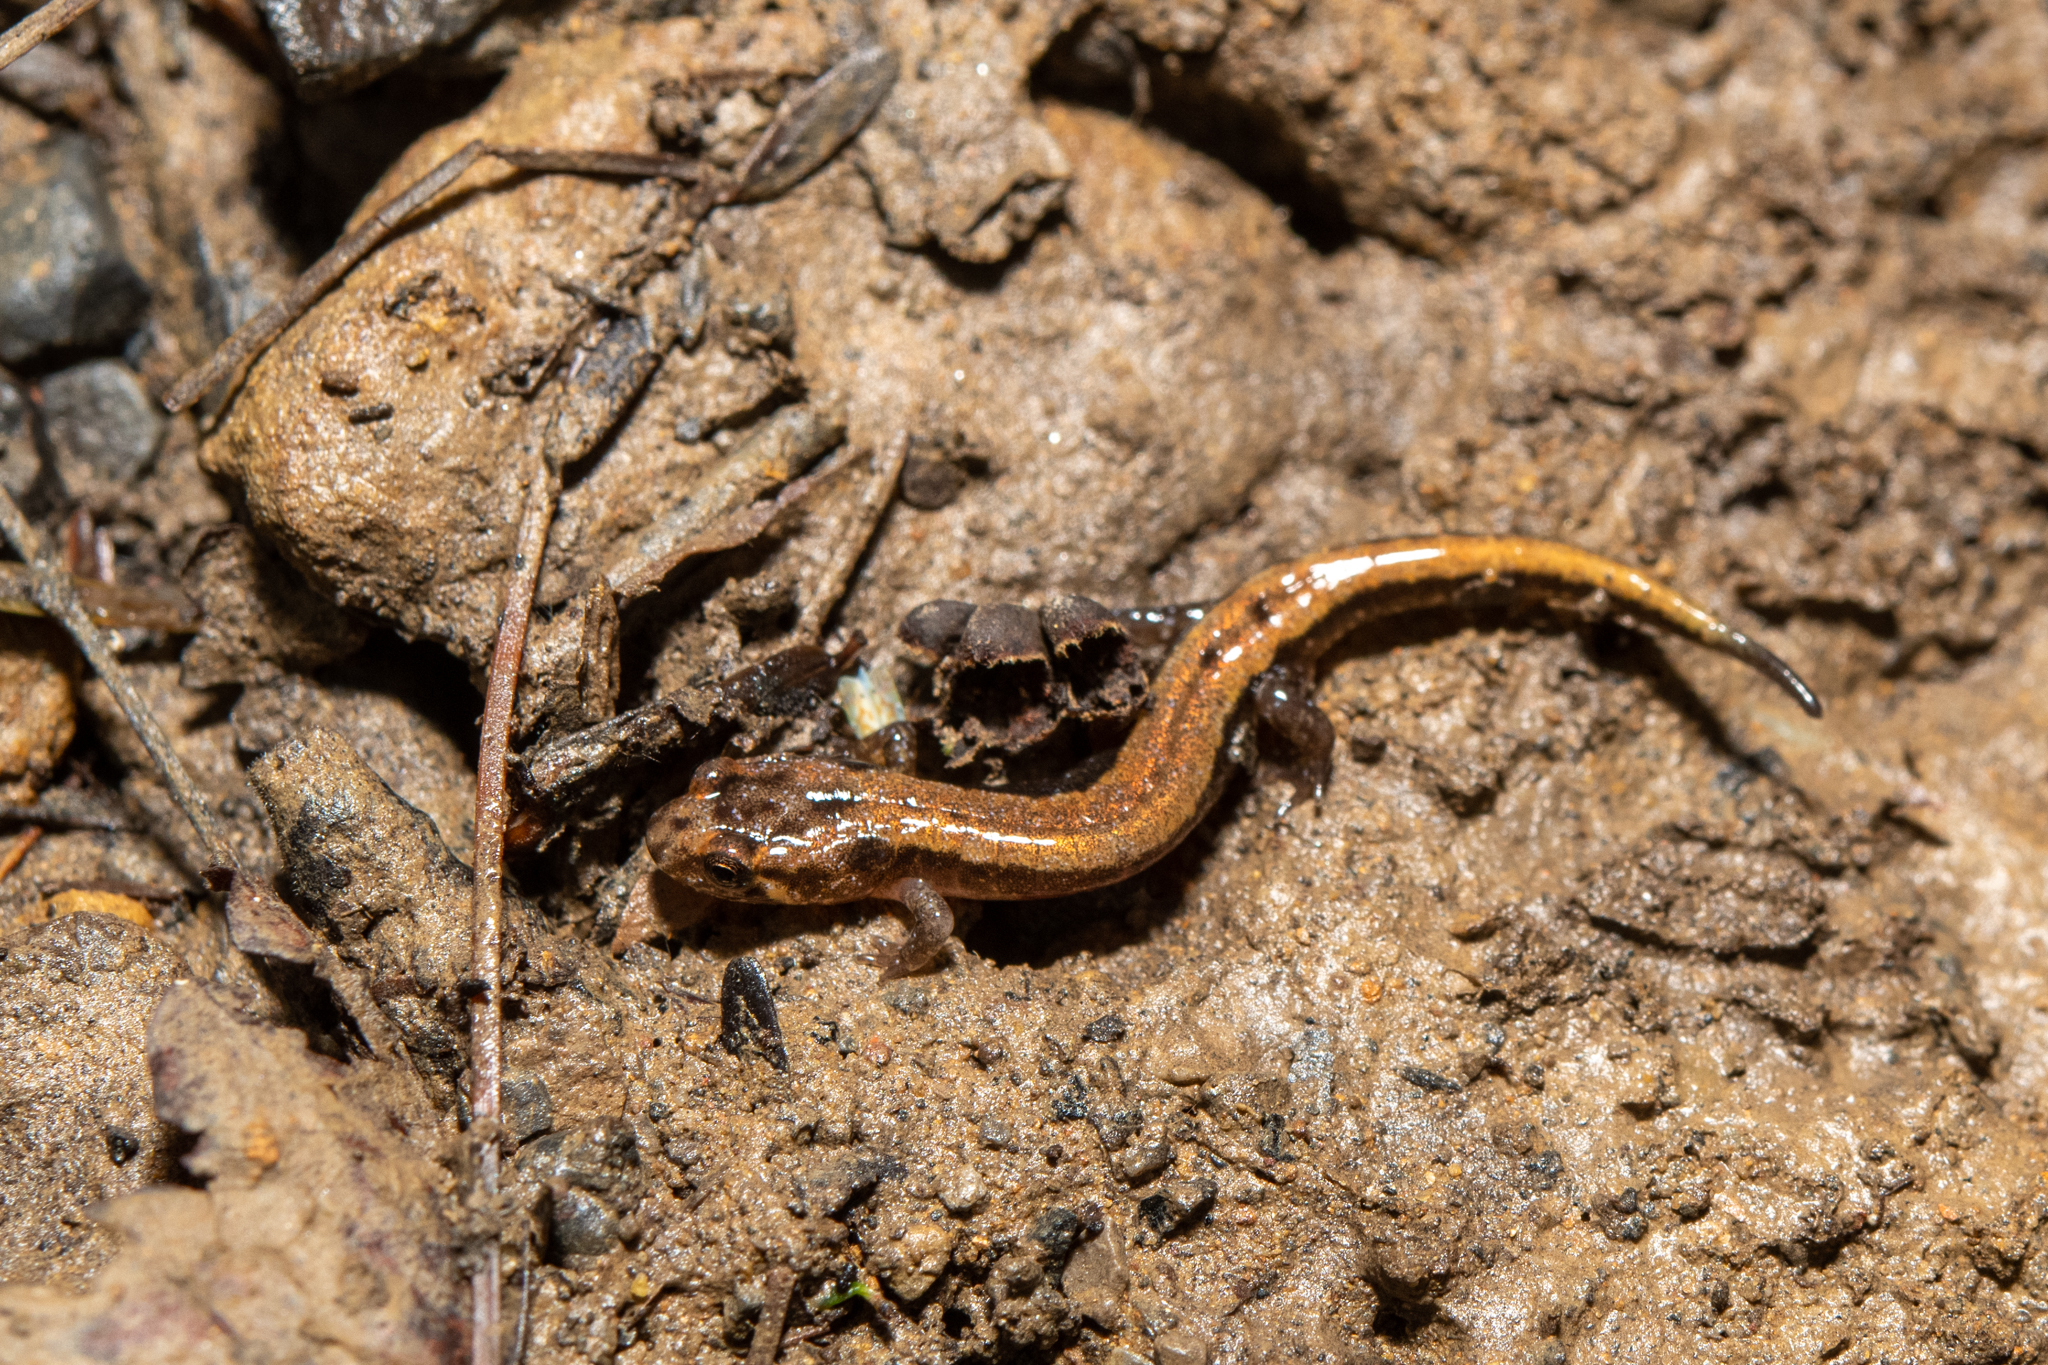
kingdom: Animalia
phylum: Chordata
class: Amphibia
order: Caudata
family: Plethodontidae
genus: Desmognathus
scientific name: Desmognathus ochrophaeus
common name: Allegheny mountain dusky salamander
